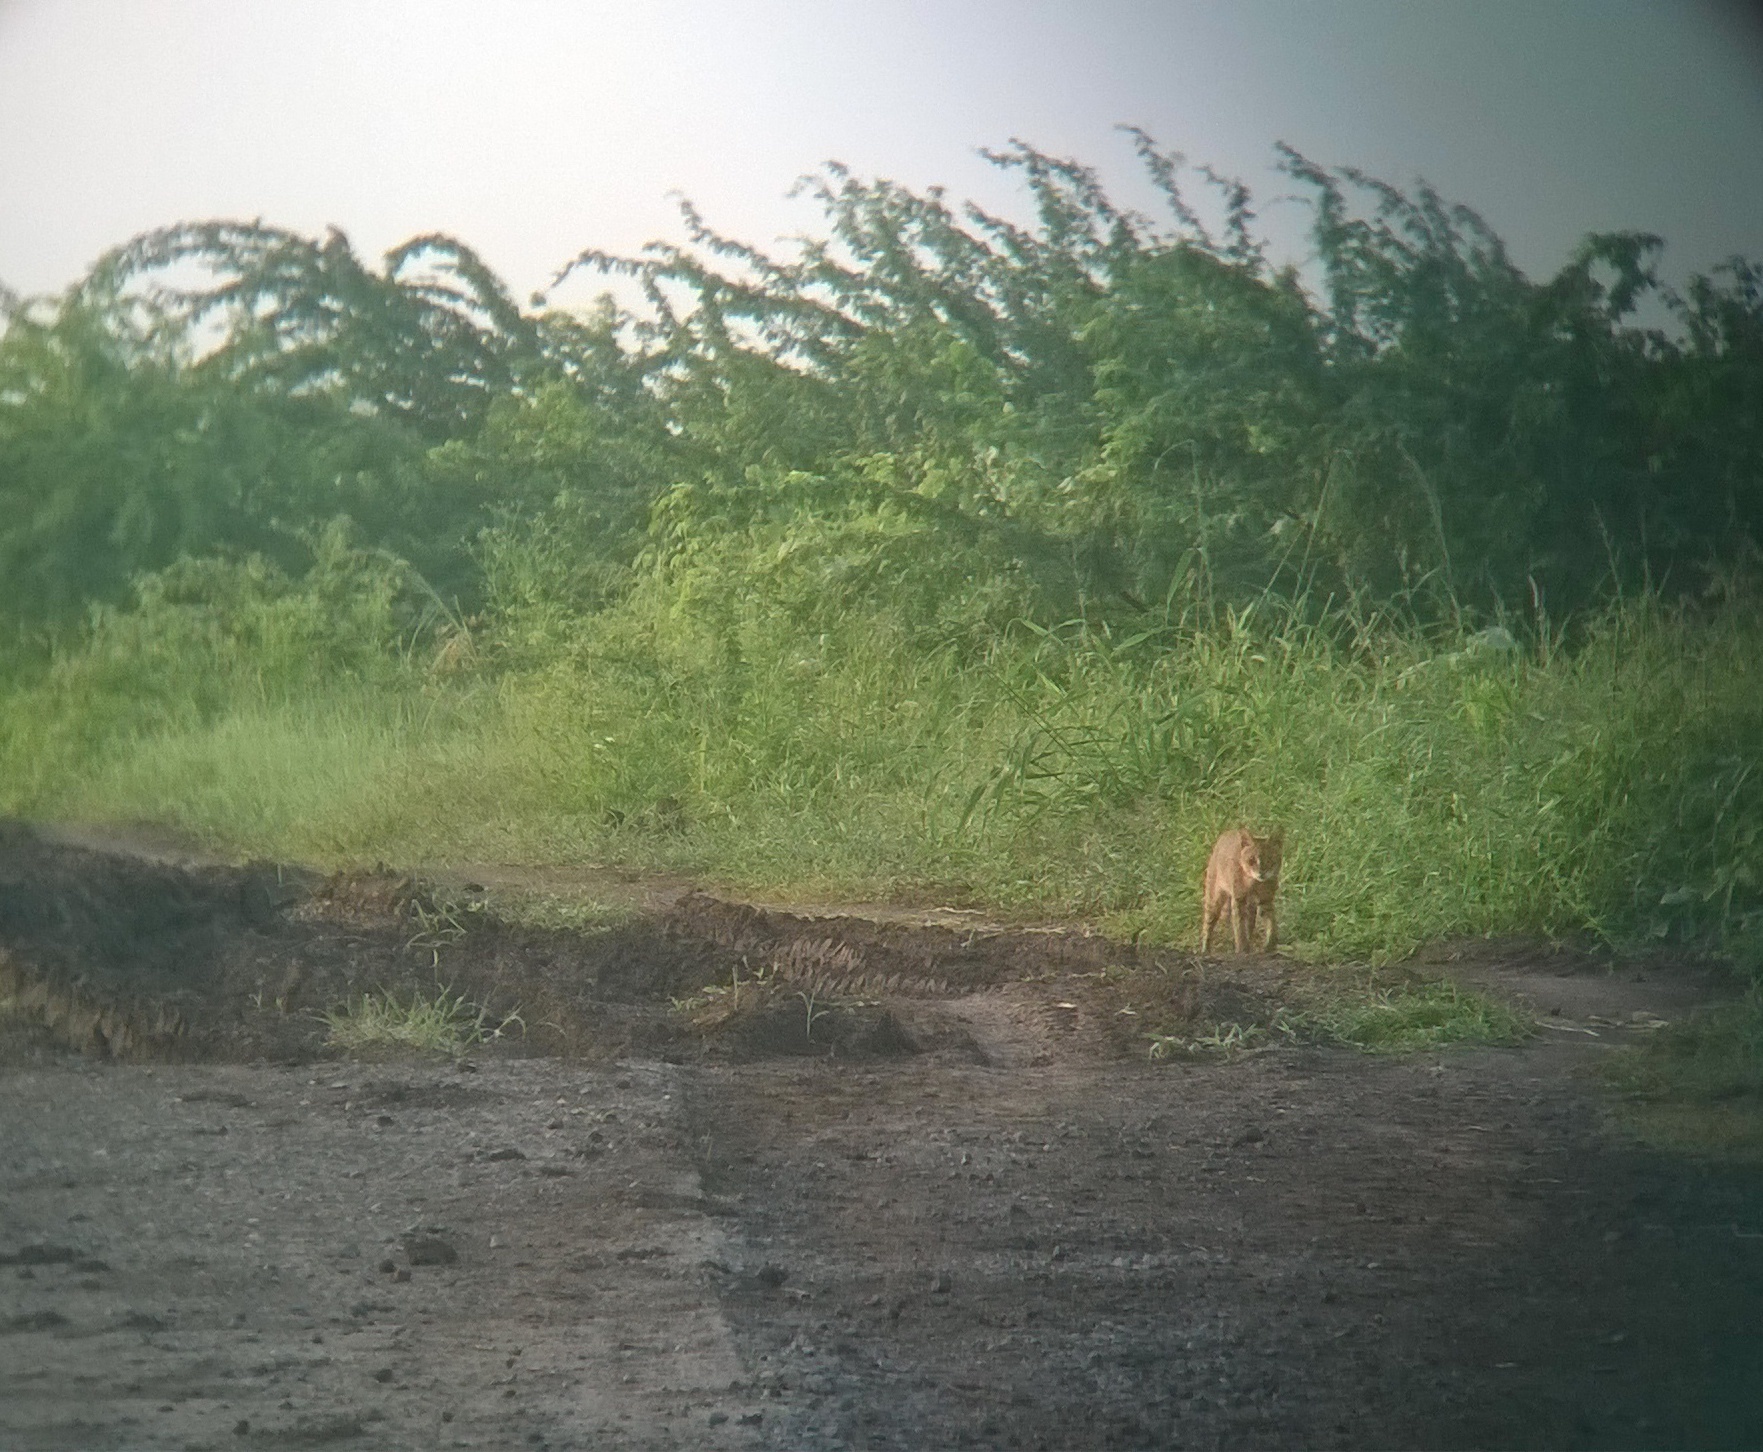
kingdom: Animalia
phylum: Chordata
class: Mammalia
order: Carnivora
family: Felidae
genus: Felis
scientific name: Felis chaus
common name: Jungle cat
